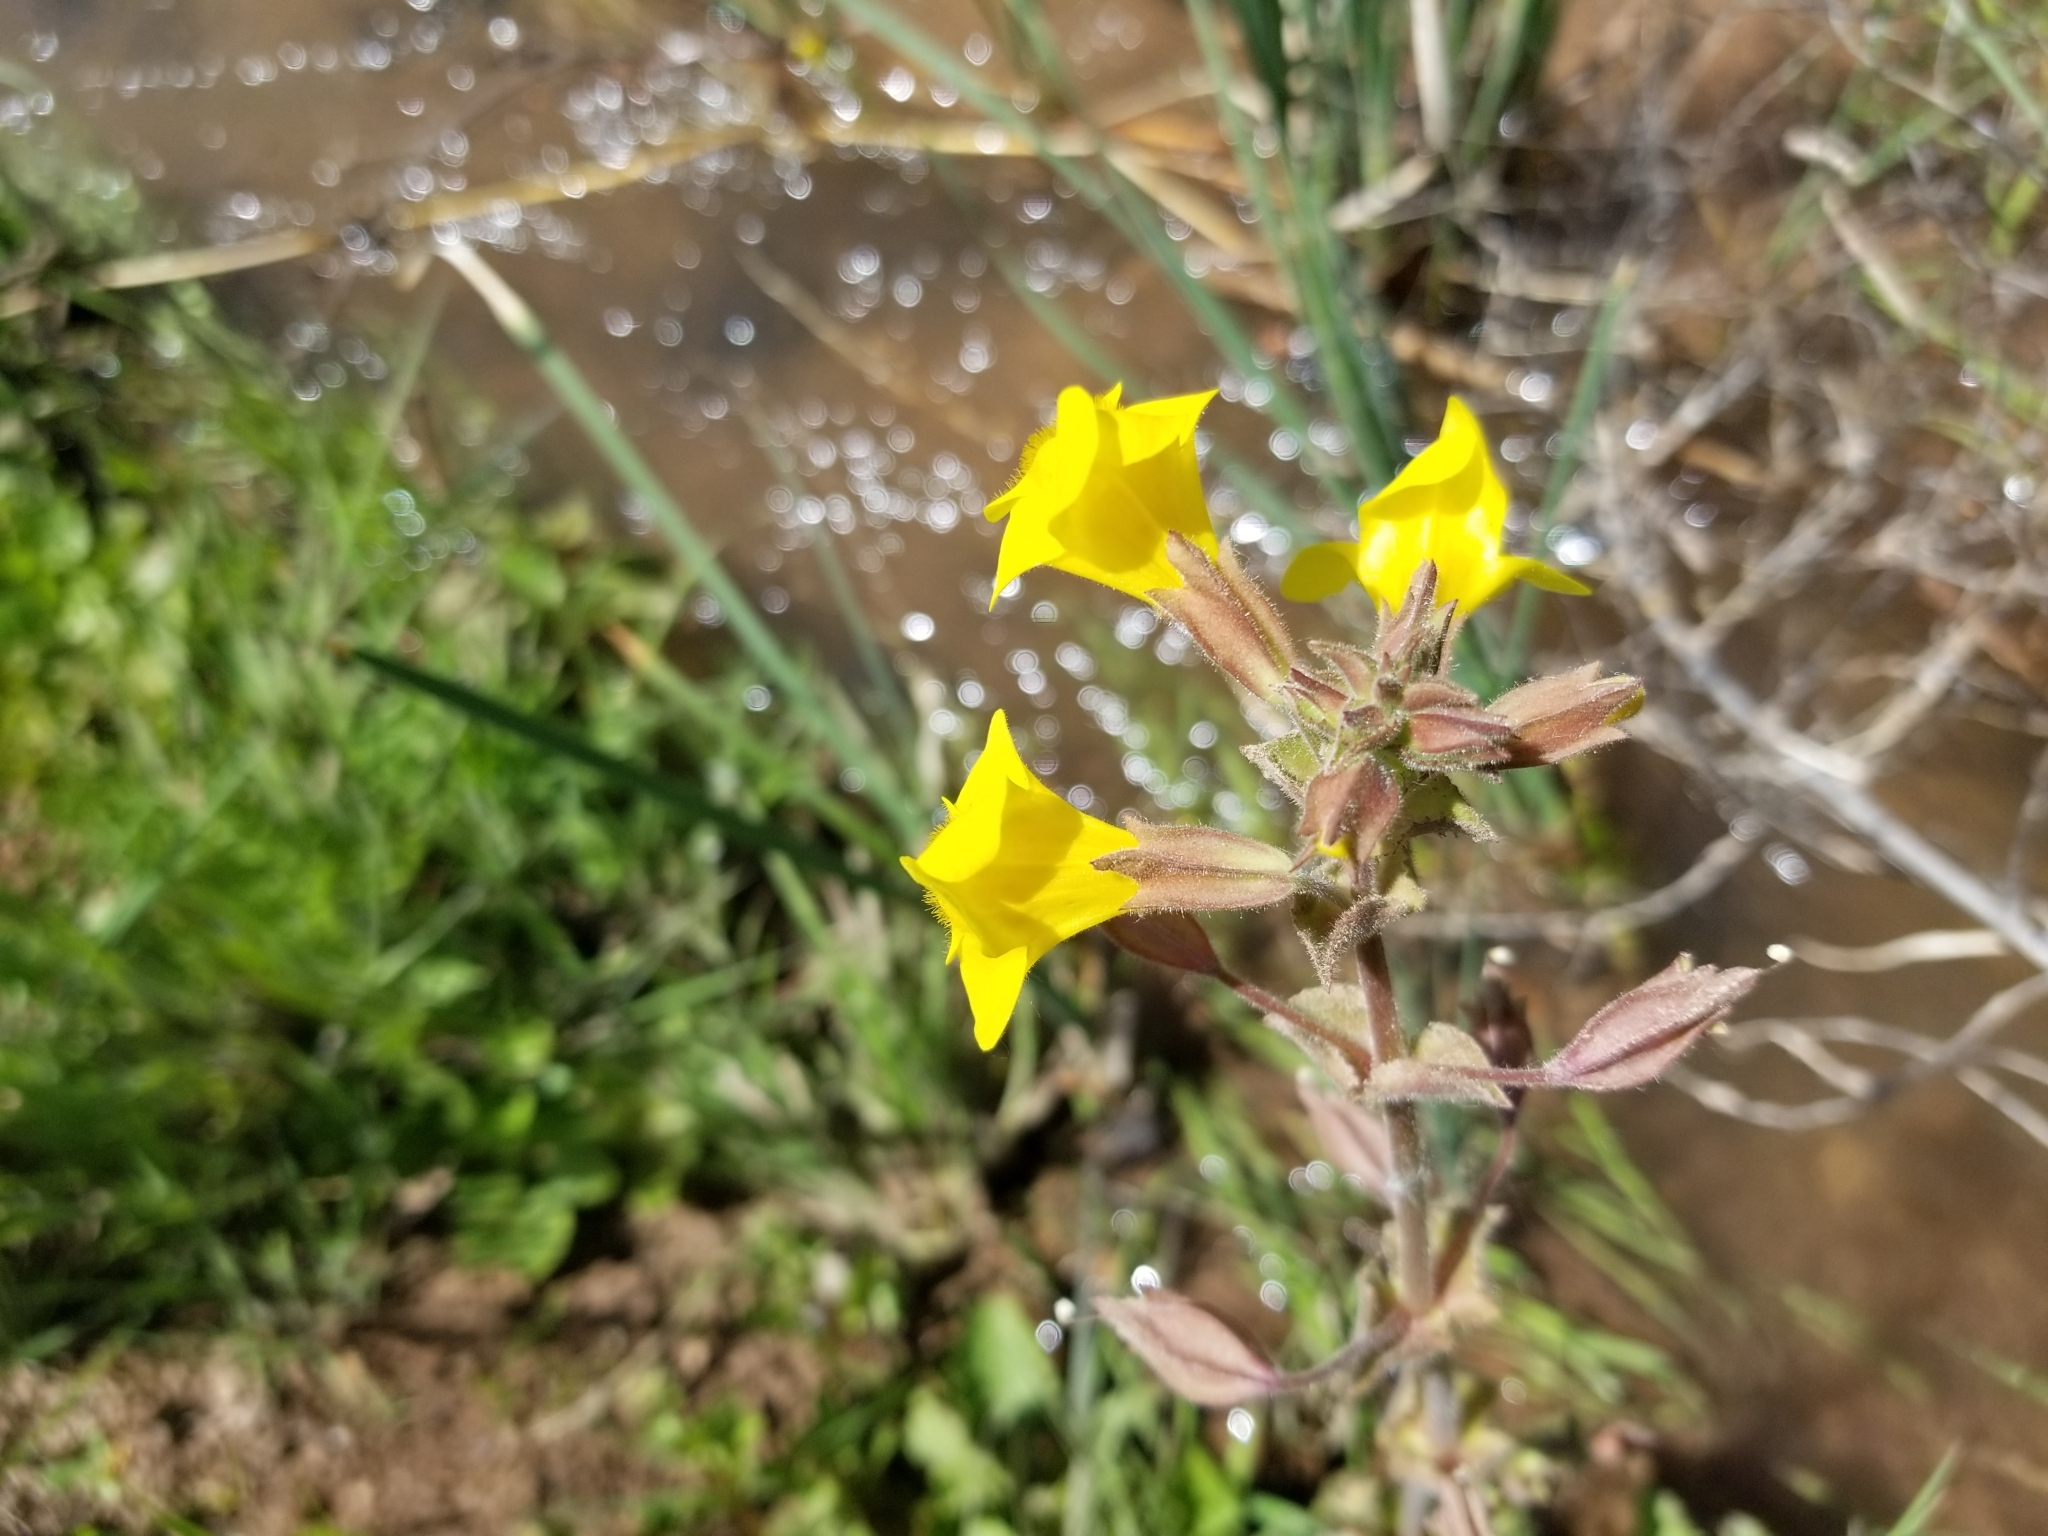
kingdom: Plantae
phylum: Tracheophyta
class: Magnoliopsida
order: Lamiales
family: Phrymaceae
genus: Erythranthe
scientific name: Erythranthe guttata
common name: Monkeyflower
